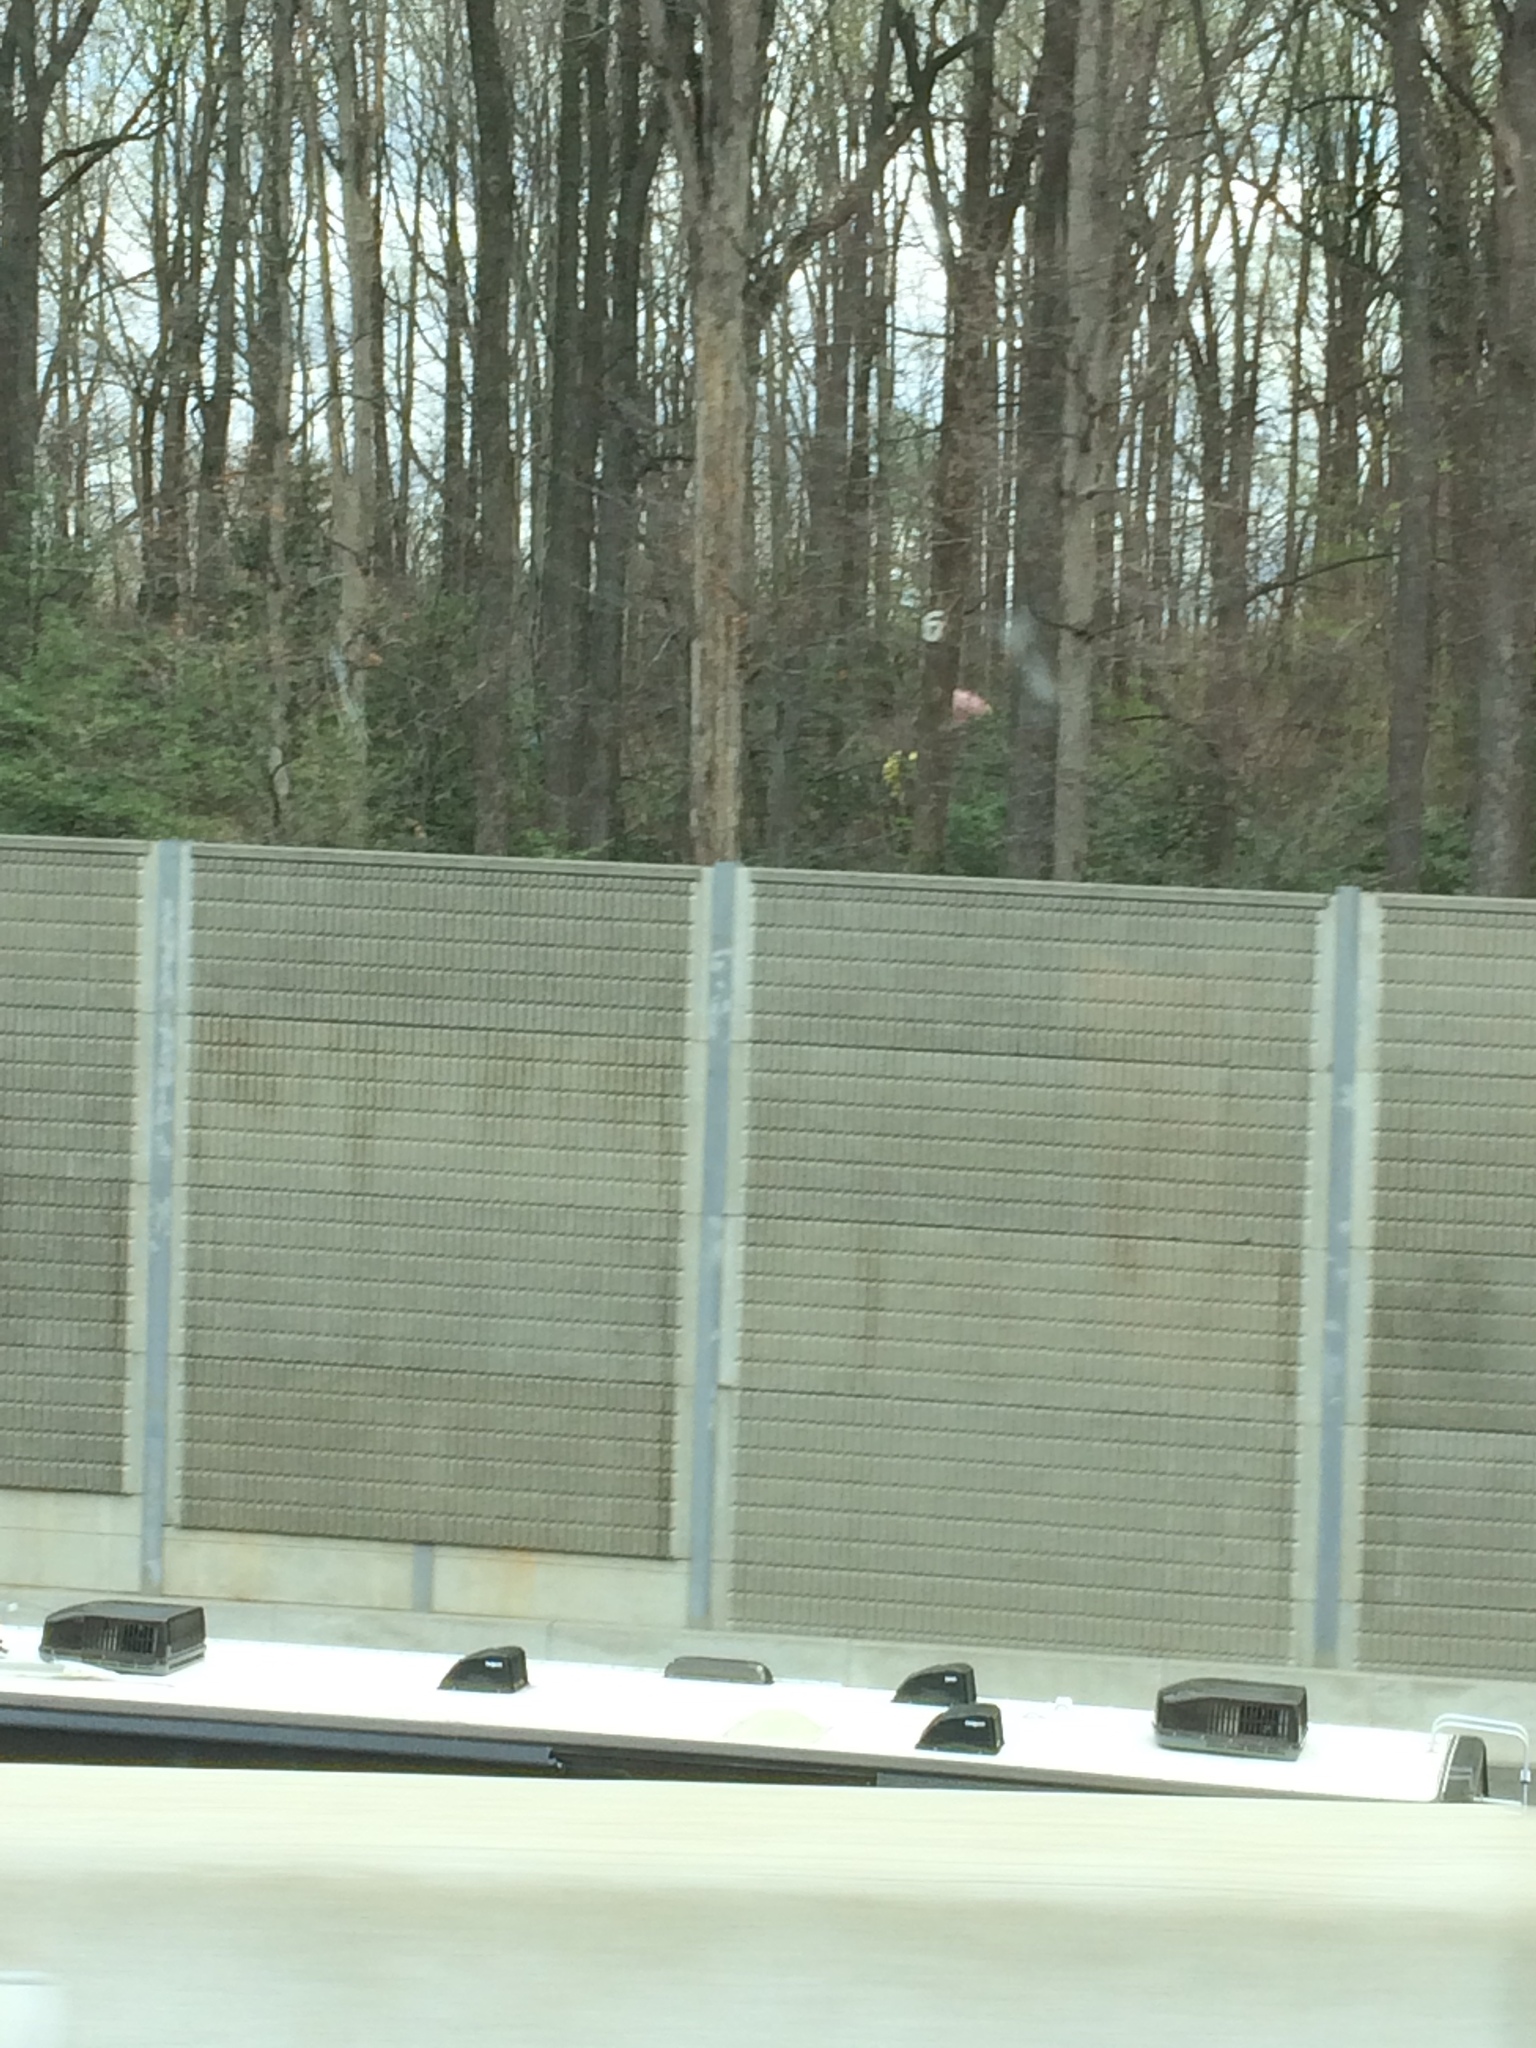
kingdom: Plantae
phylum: Tracheophyta
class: Magnoliopsida
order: Aquifoliales
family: Aquifoliaceae
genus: Ilex
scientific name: Ilex opaca
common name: American holly
